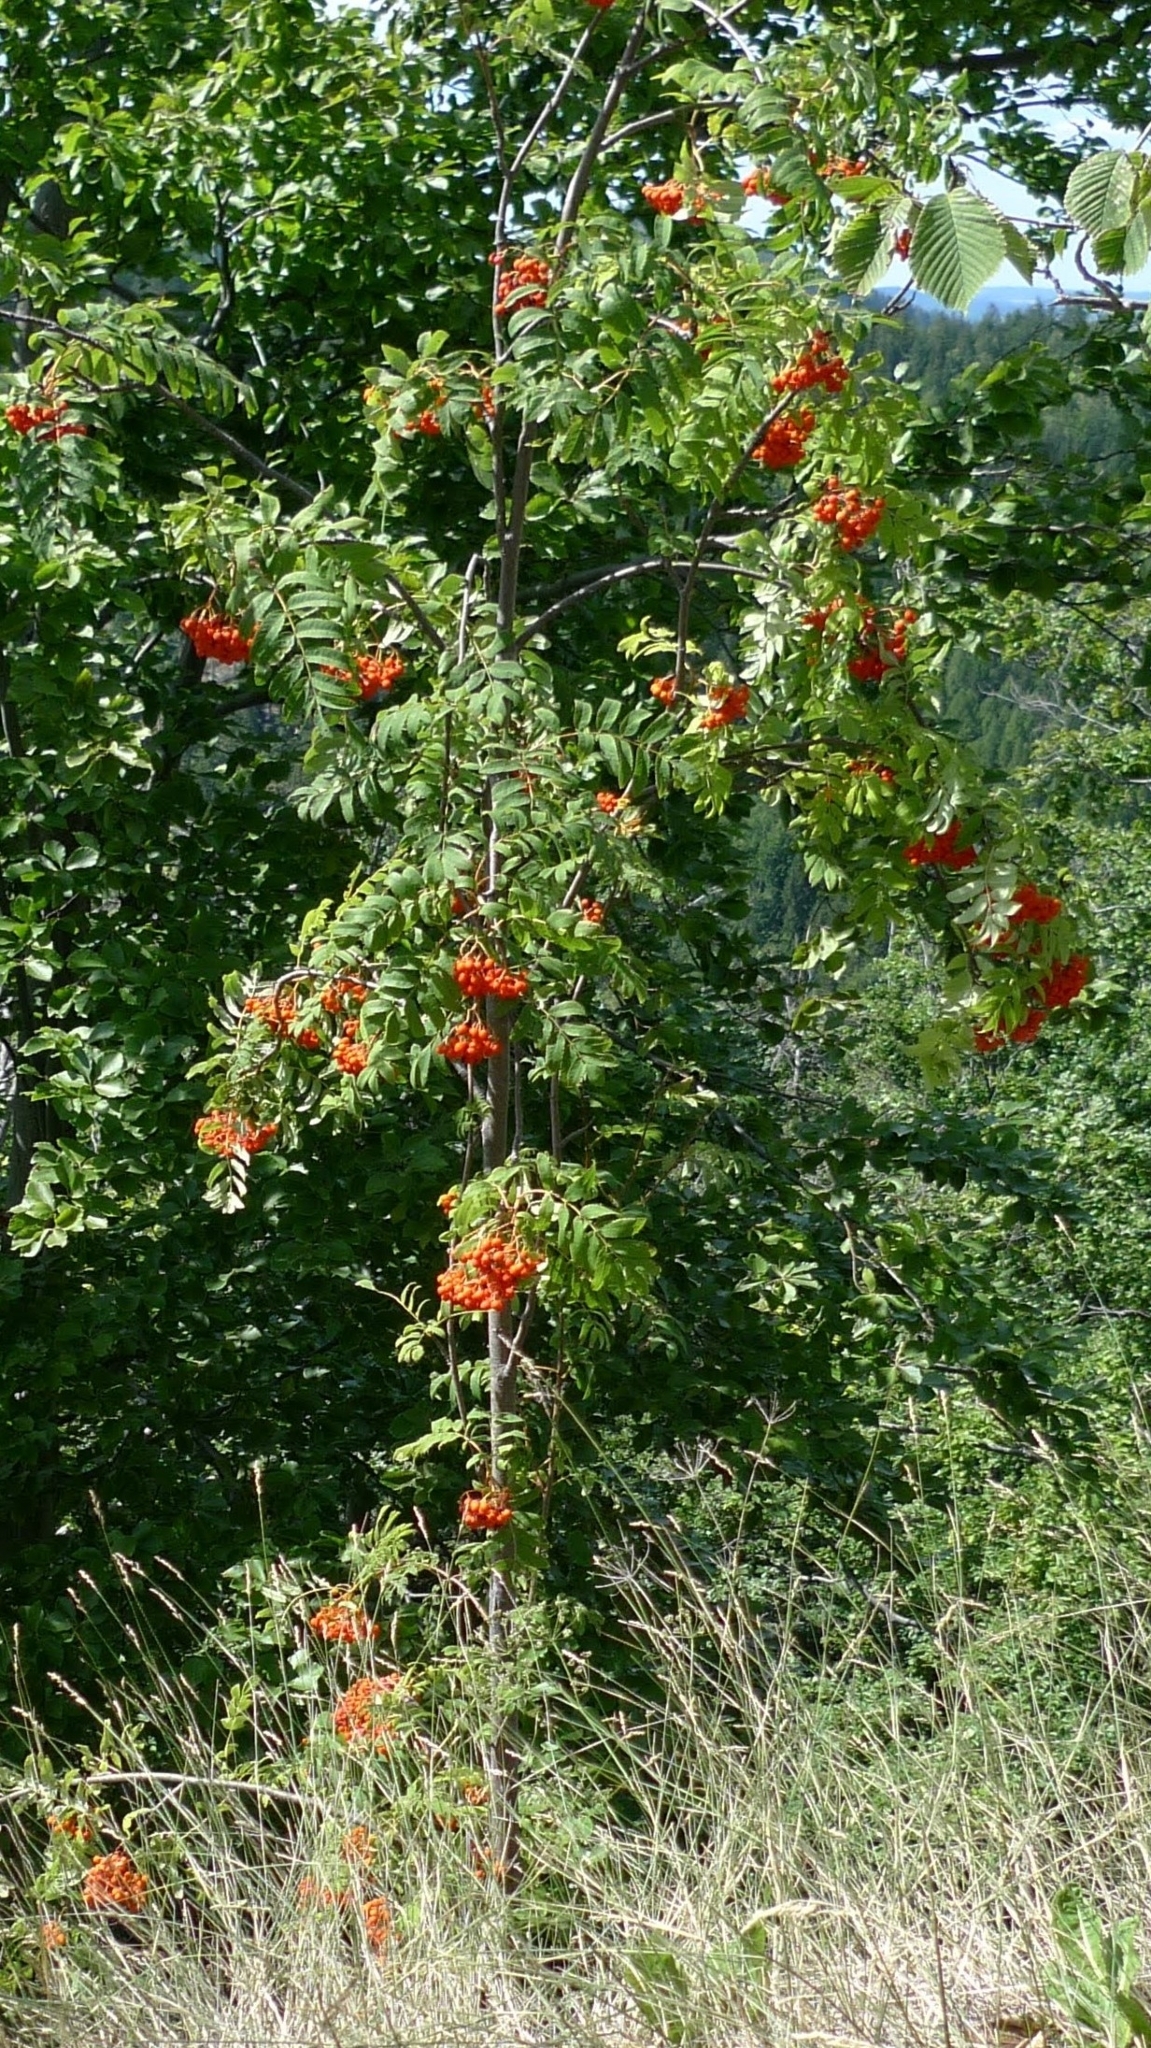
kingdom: Plantae
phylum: Tracheophyta
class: Magnoliopsida
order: Rosales
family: Rosaceae
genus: Sorbus
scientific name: Sorbus aucuparia
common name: Rowan
